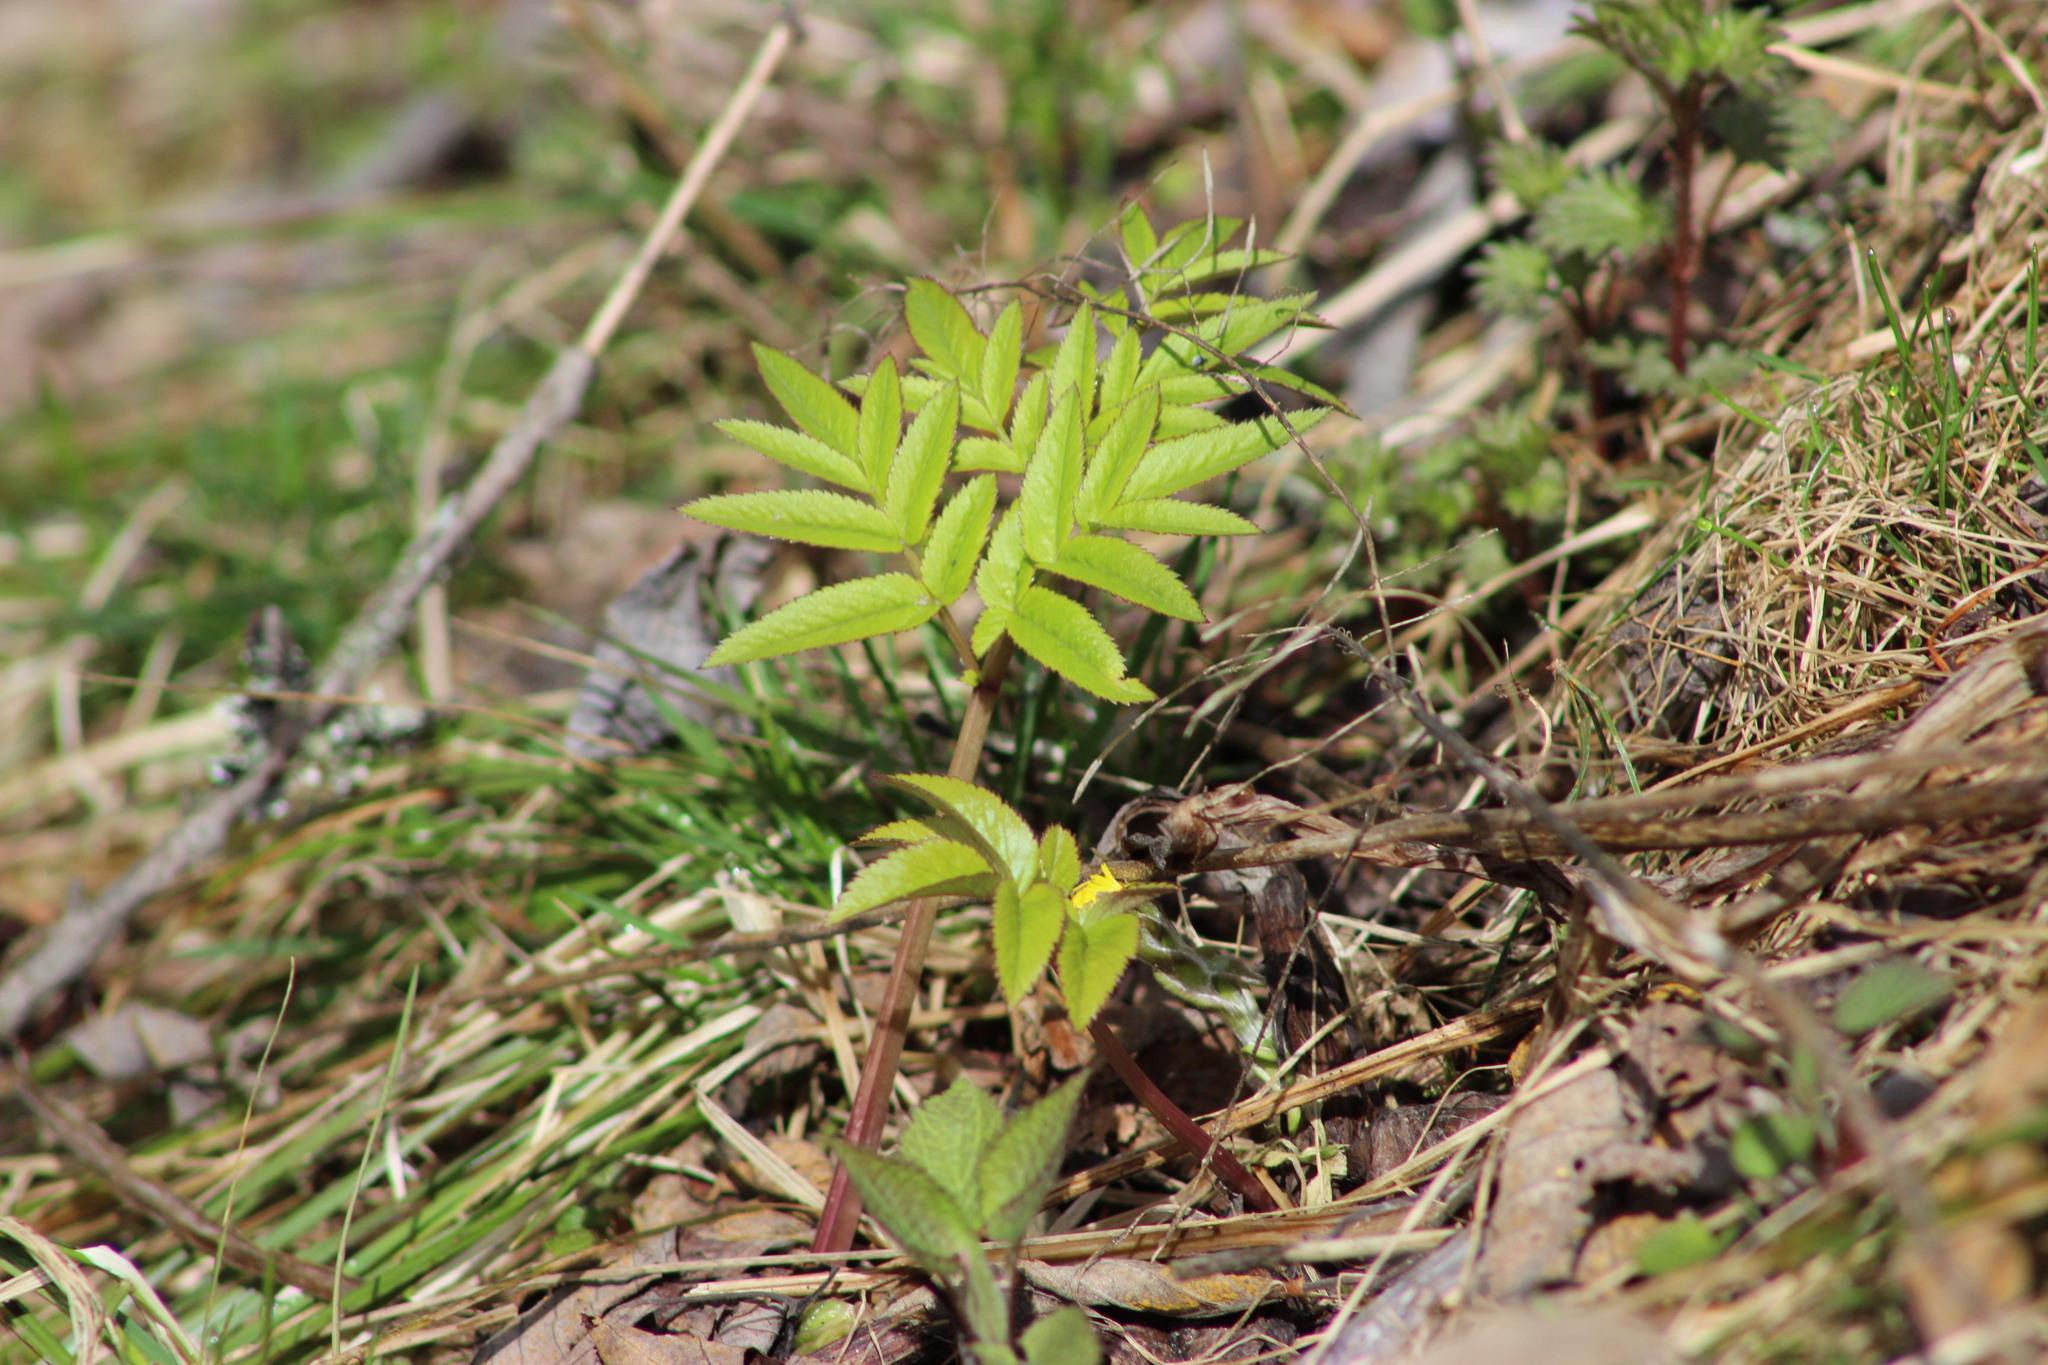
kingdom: Plantae
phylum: Tracheophyta
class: Magnoliopsida
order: Apiales
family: Apiaceae
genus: Angelica
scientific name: Angelica sylvestris
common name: Wild angelica
